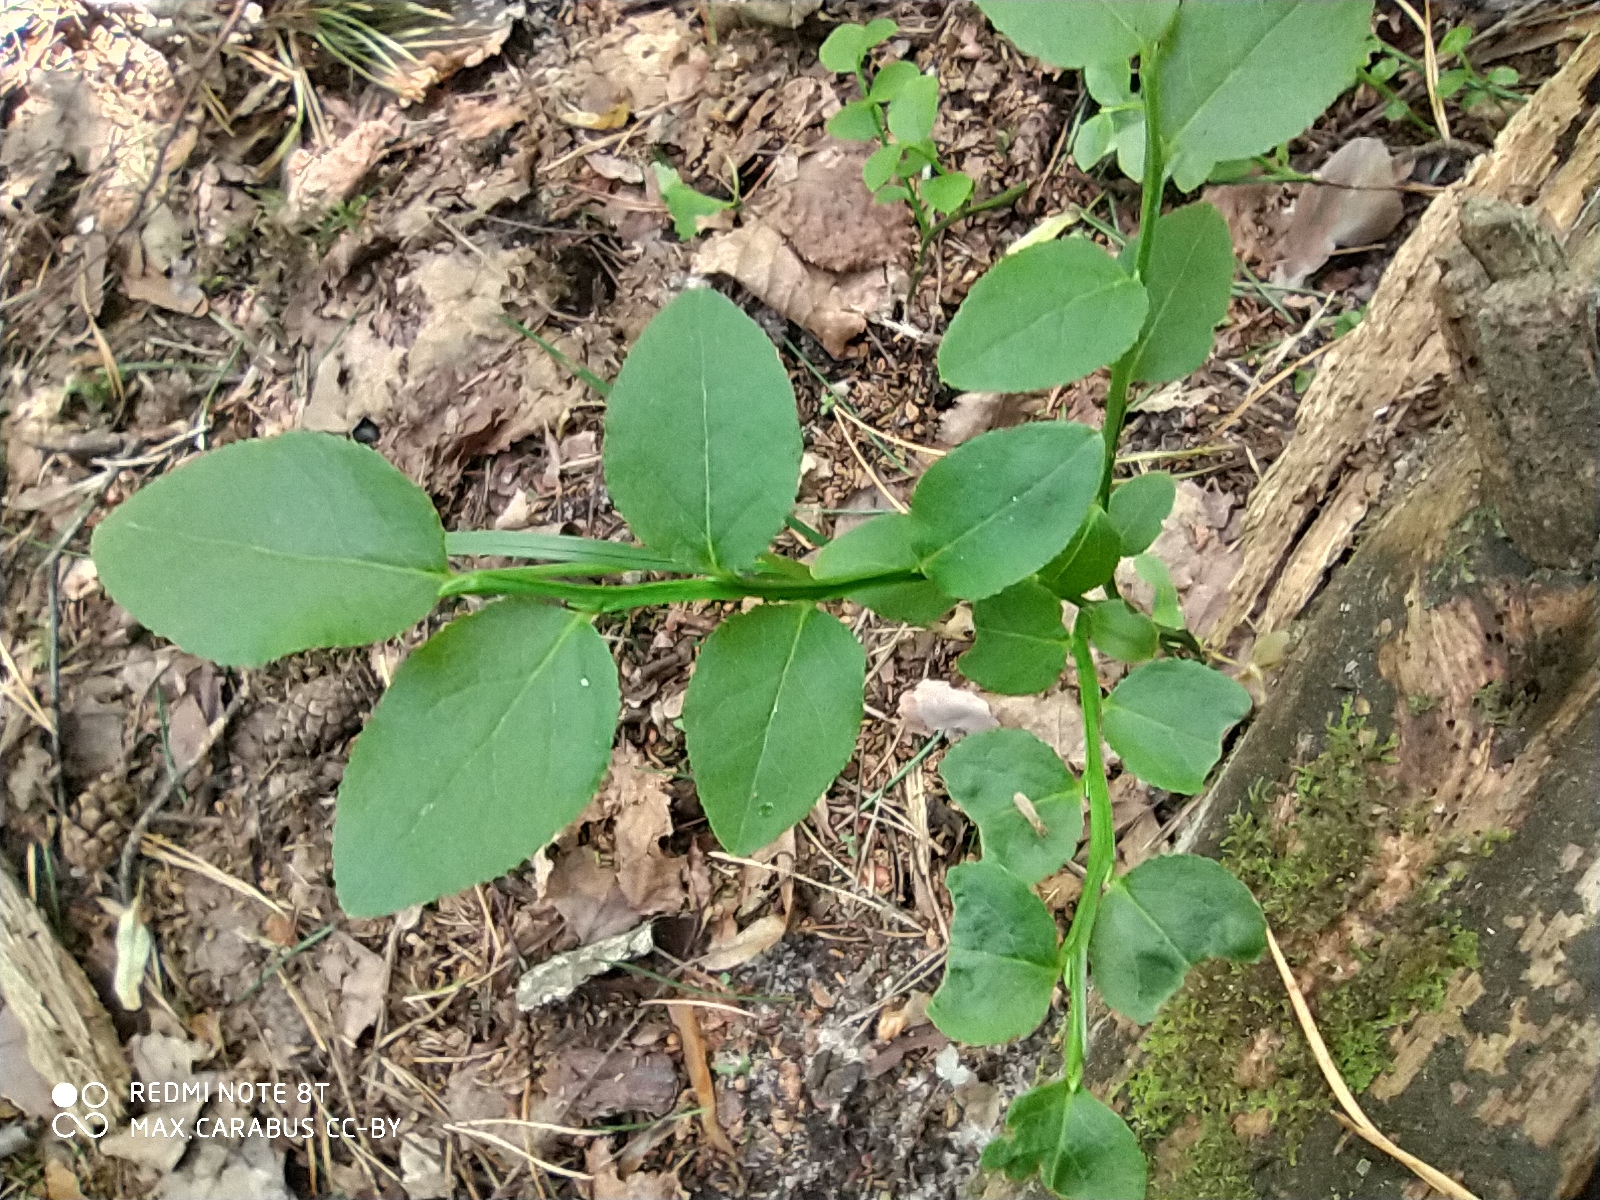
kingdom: Plantae
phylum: Tracheophyta
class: Magnoliopsida
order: Ericales
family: Ericaceae
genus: Vaccinium
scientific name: Vaccinium myrtillus
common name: Bilberry
